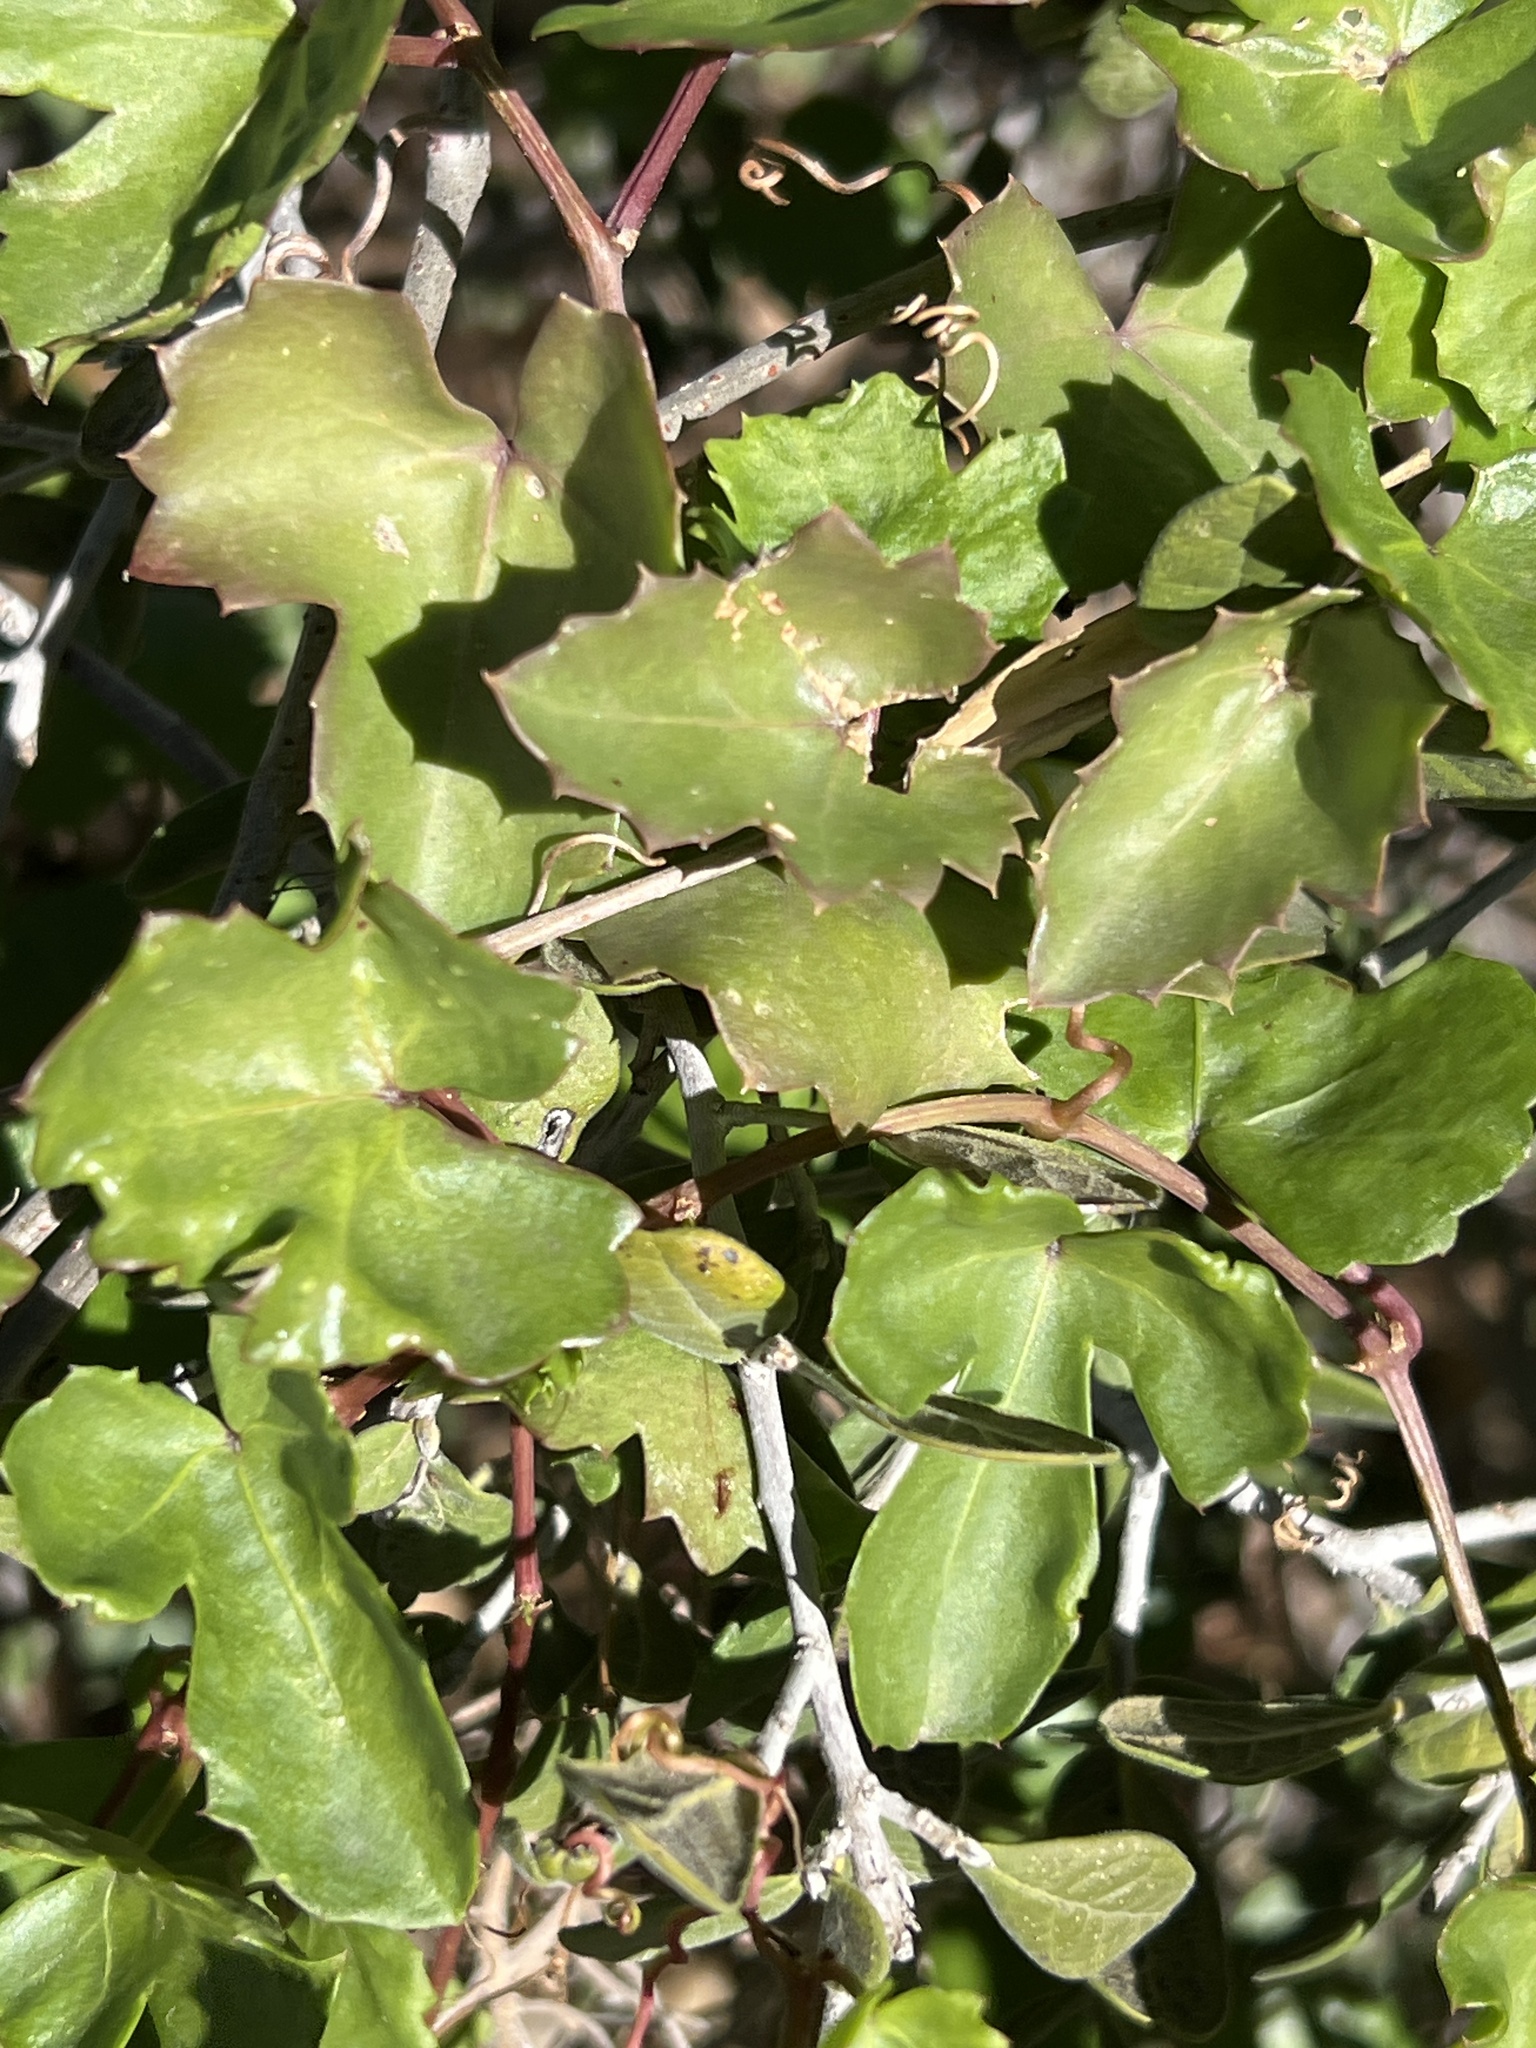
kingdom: Plantae
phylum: Tracheophyta
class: Magnoliopsida
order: Vitales
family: Vitaceae
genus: Cissus
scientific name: Cissus trifoliata
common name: Vine-sorrel
